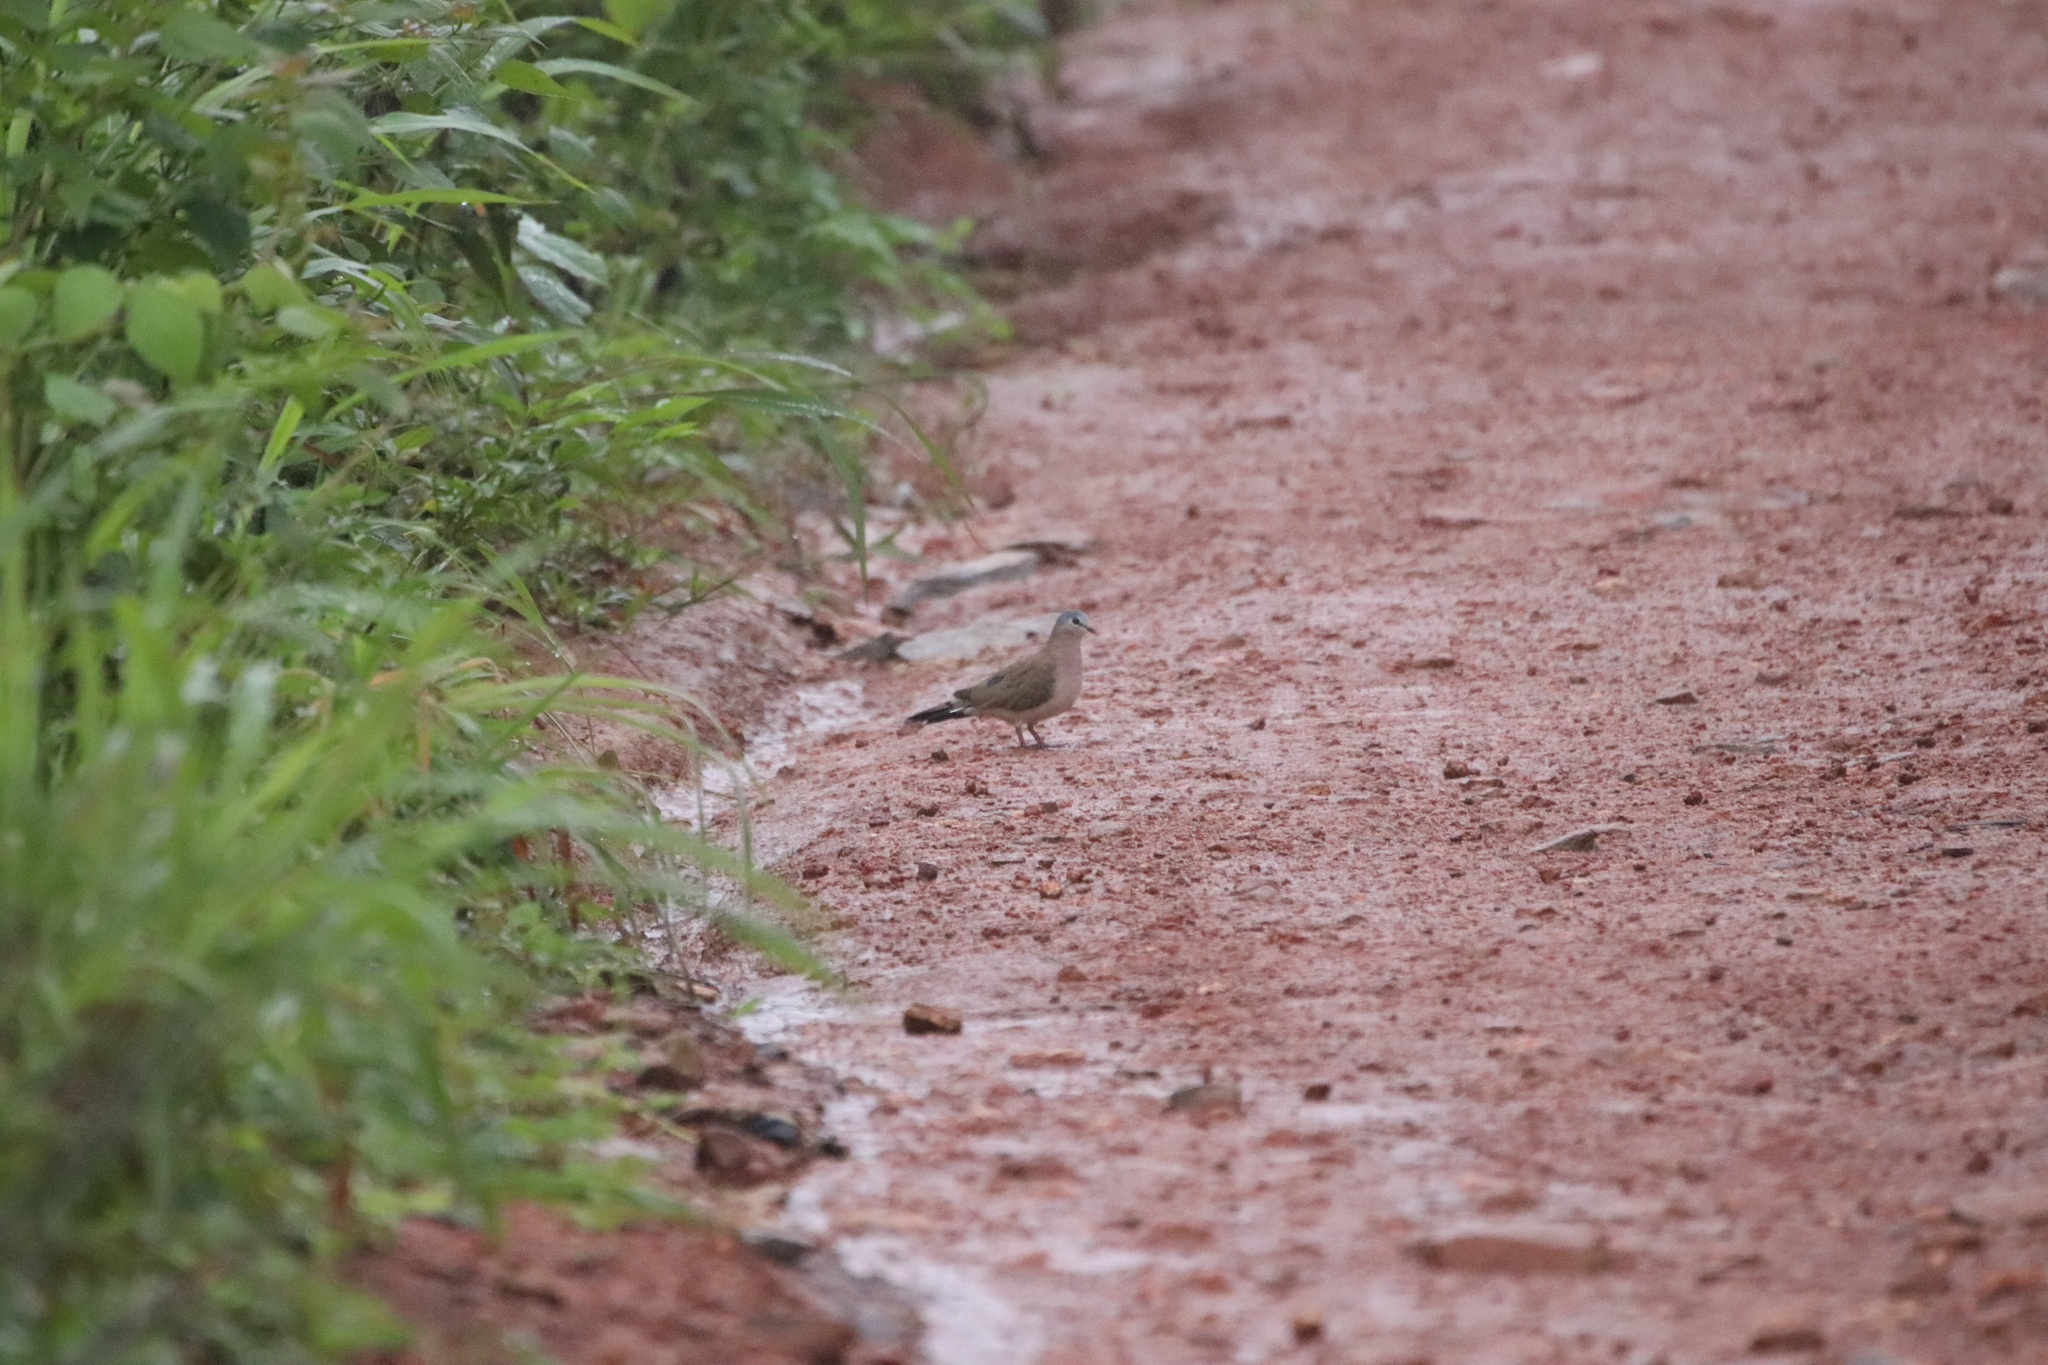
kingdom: Animalia
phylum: Chordata
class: Aves
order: Columbiformes
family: Columbidae
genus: Turtur
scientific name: Turtur afer
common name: Blue-spotted wood dove
